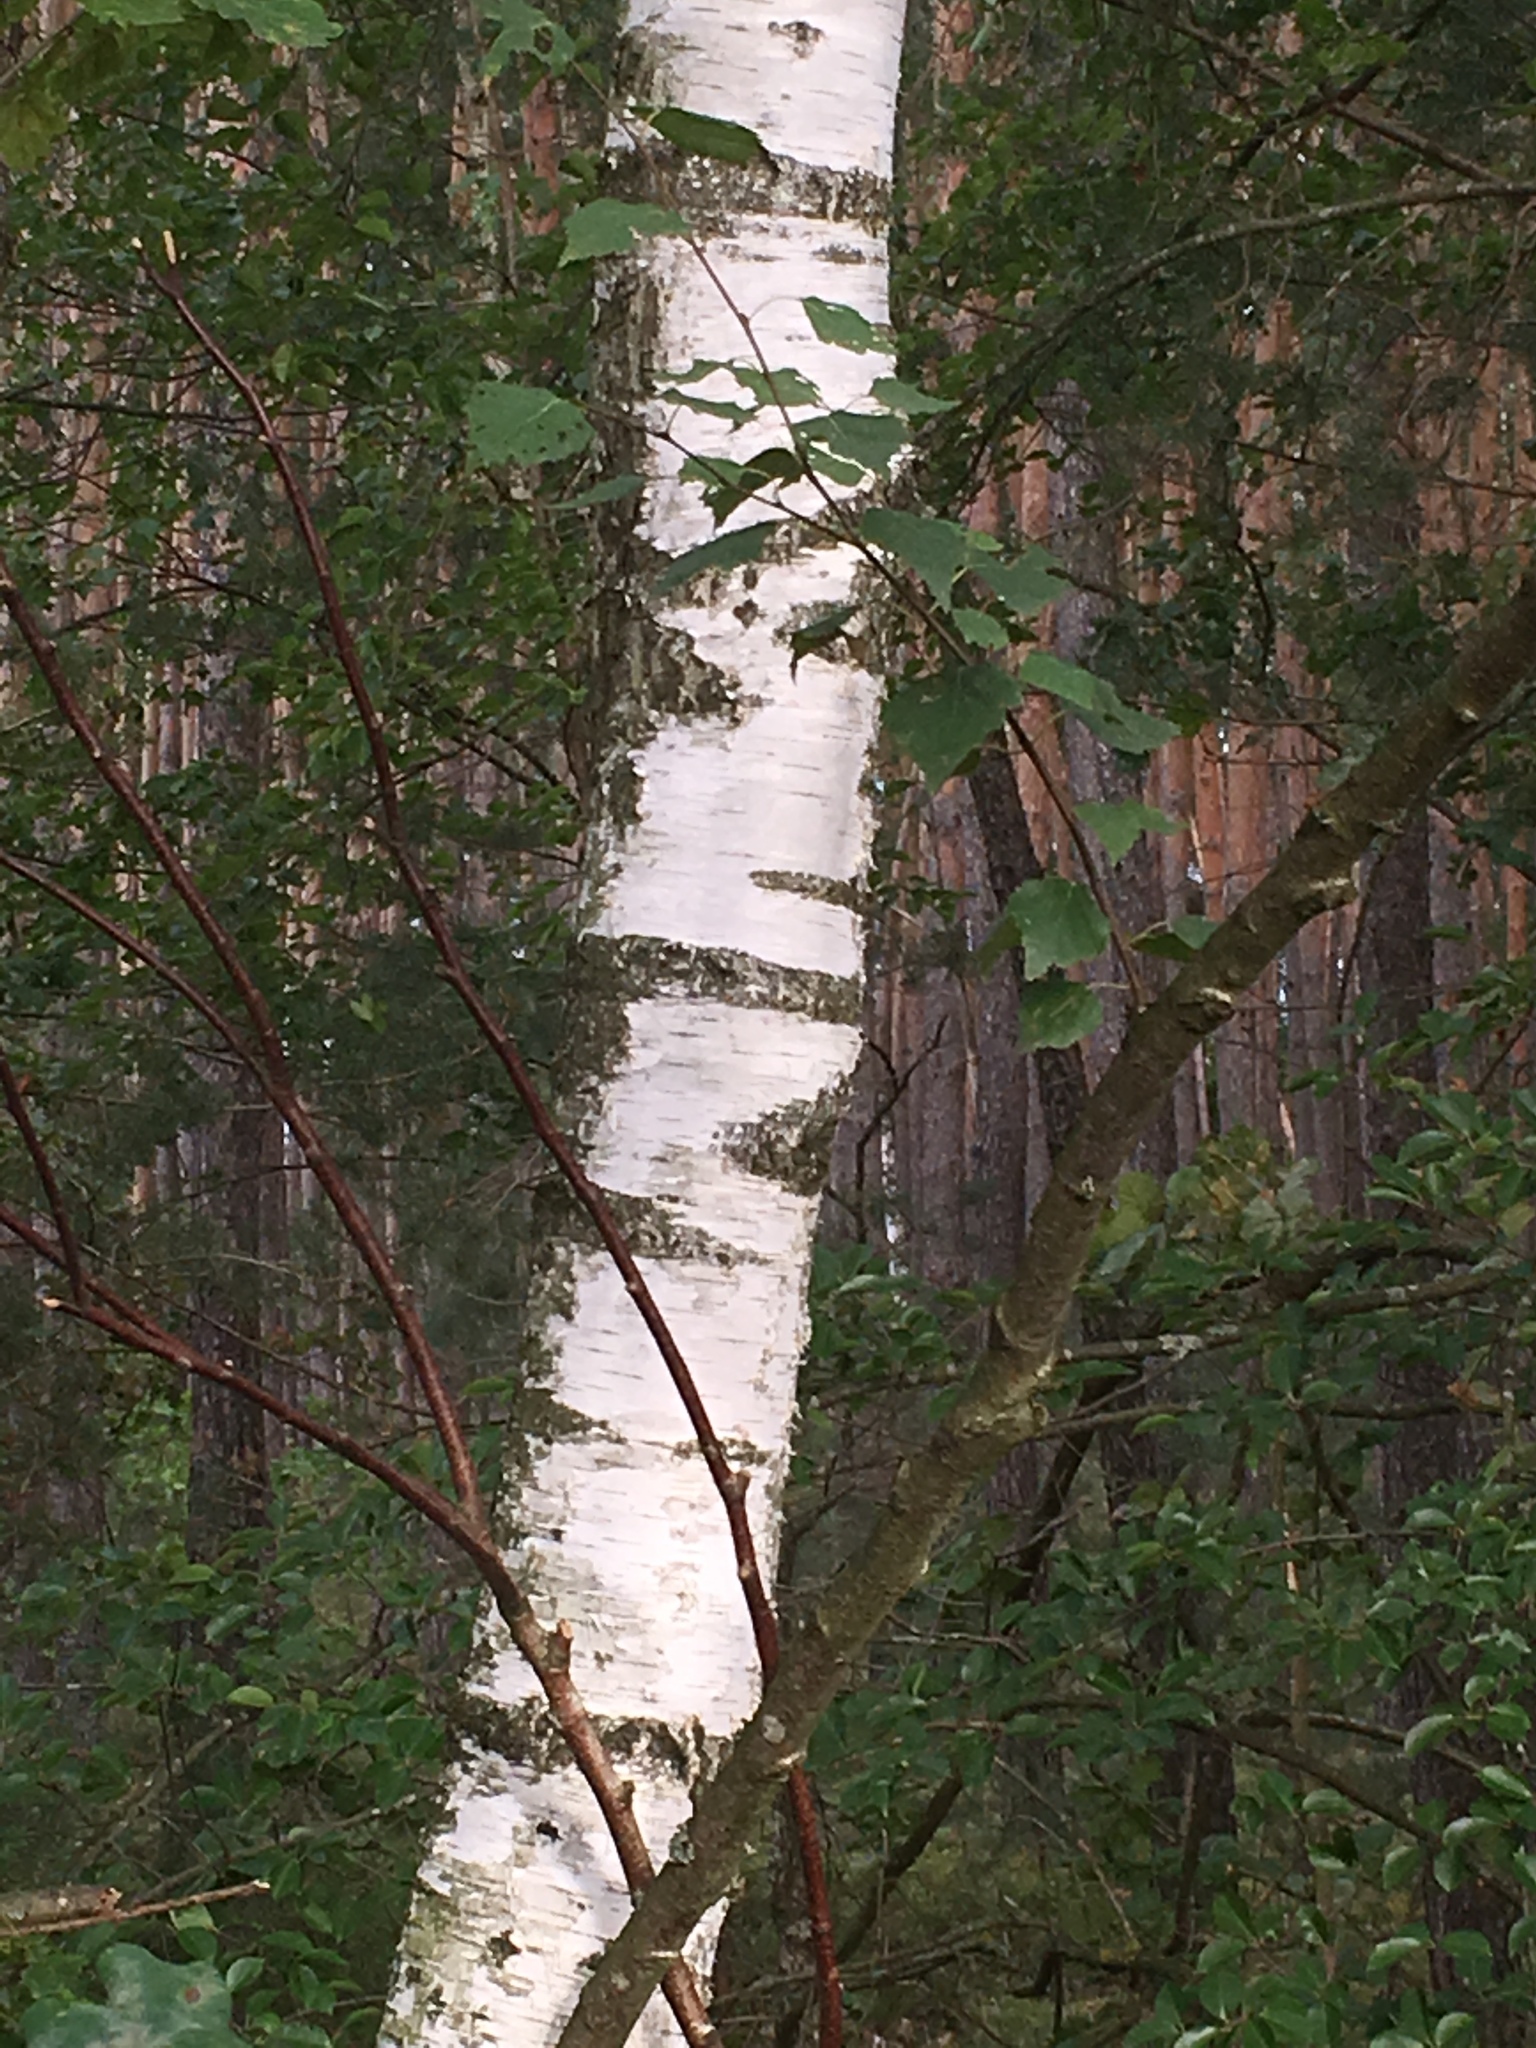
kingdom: Plantae
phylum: Tracheophyta
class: Magnoliopsida
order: Fagales
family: Betulaceae
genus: Betula
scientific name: Betula pendula
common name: Silver birch
